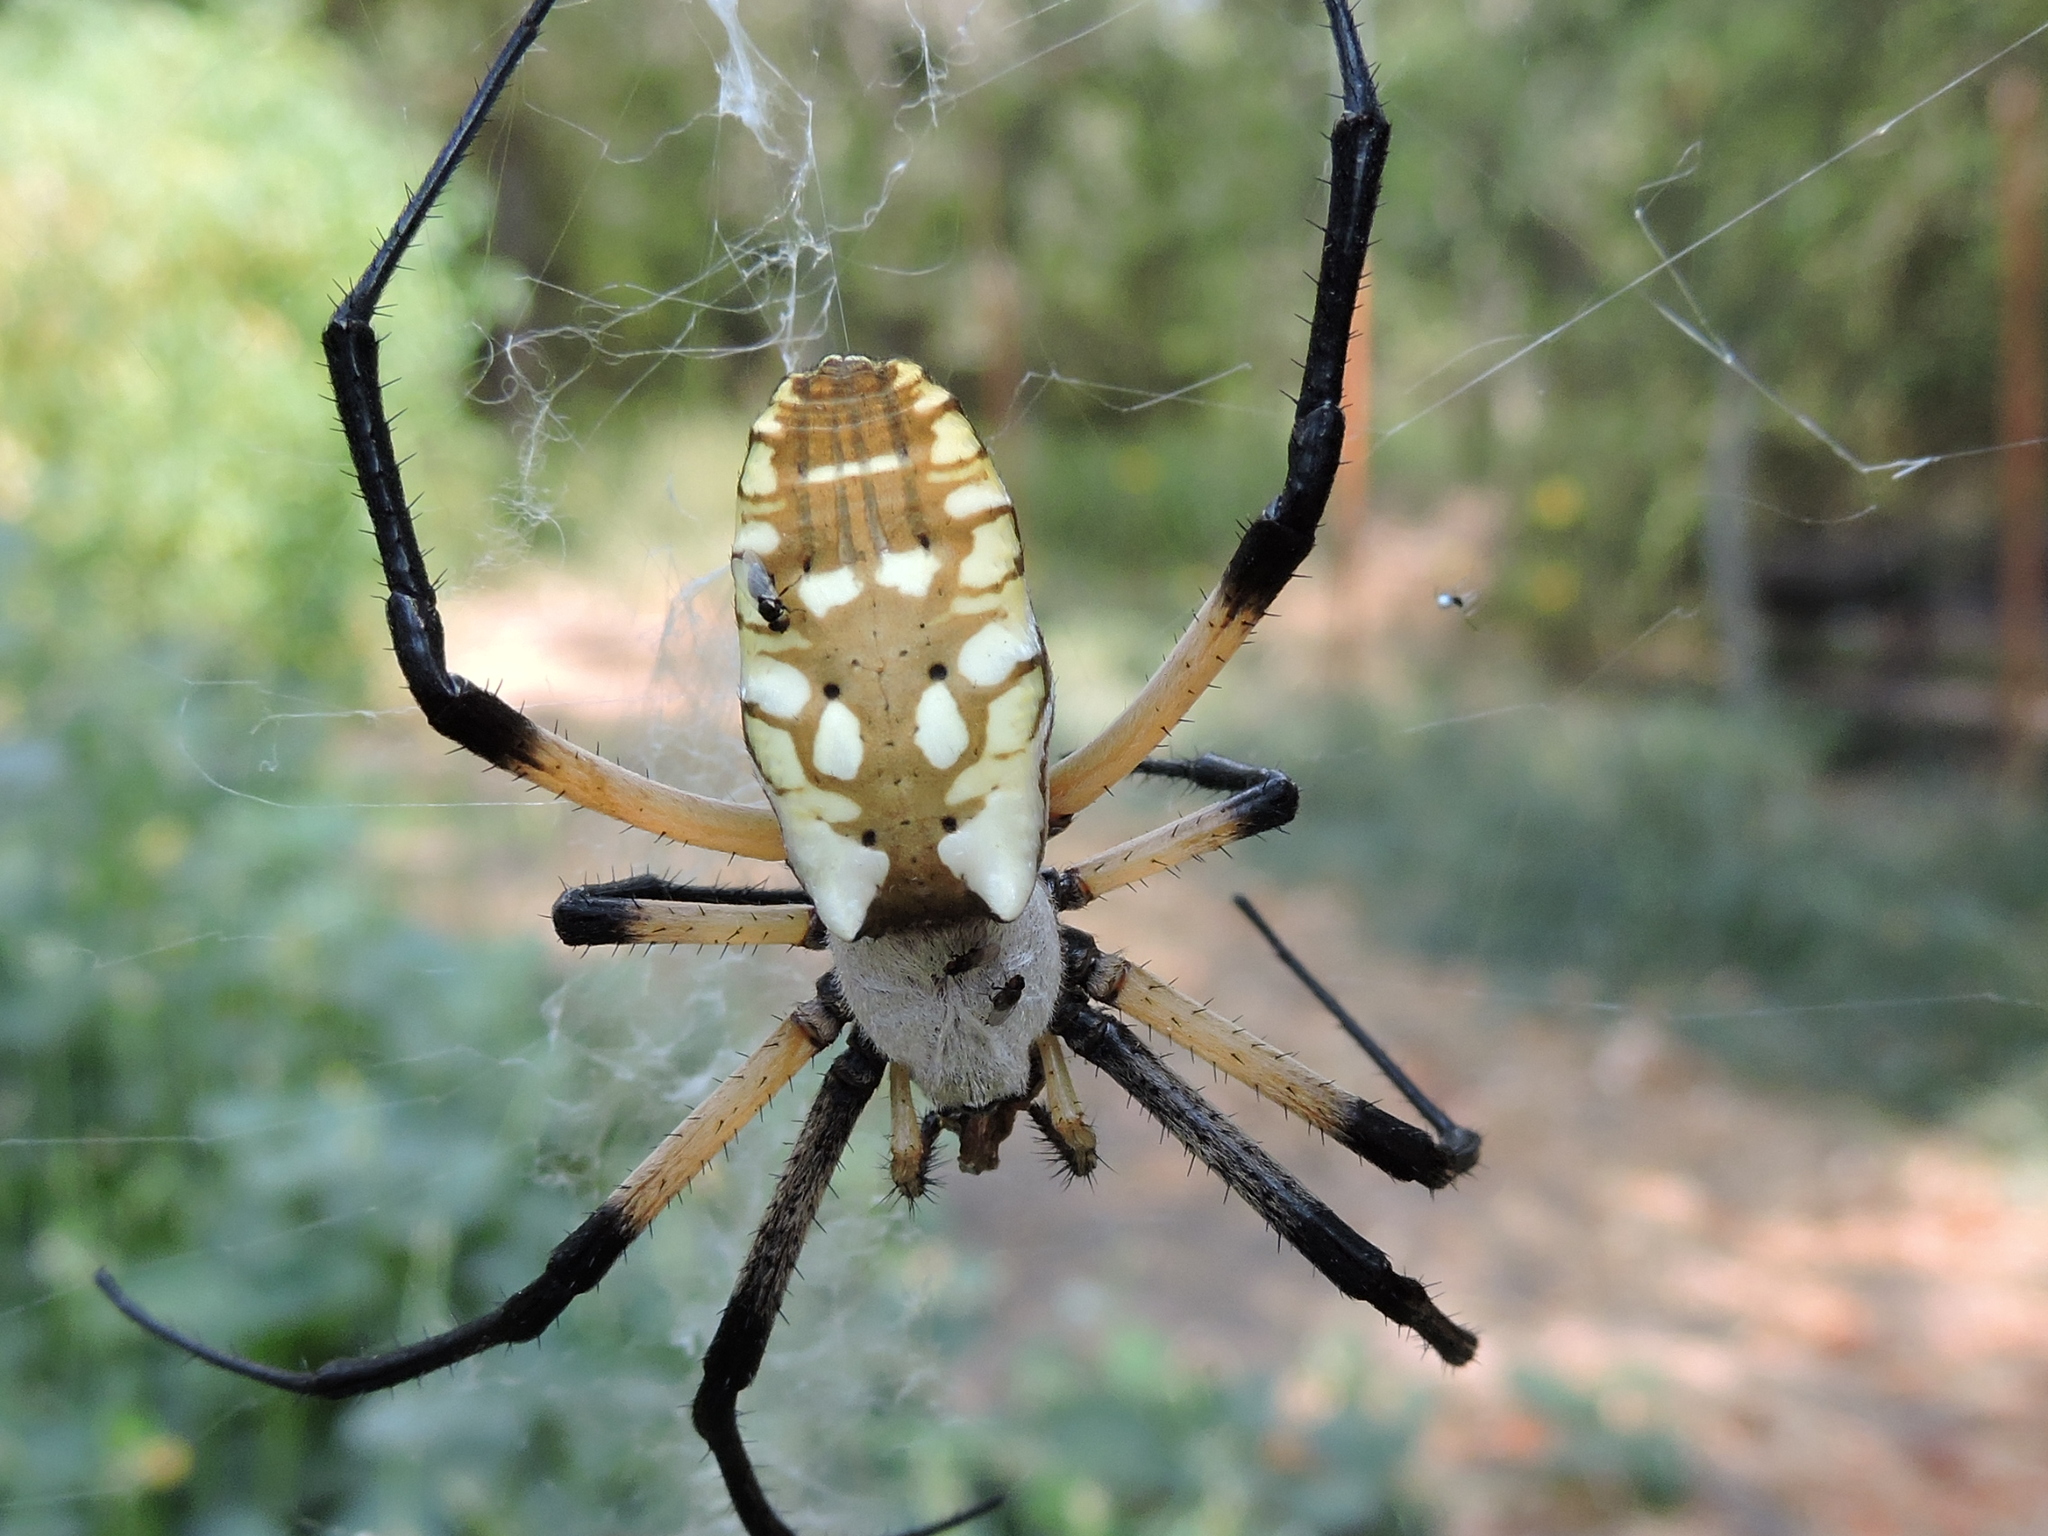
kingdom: Animalia
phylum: Arthropoda
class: Arachnida
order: Araneae
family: Araneidae
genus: Argiope
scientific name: Argiope aurantia
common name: Orb weavers
